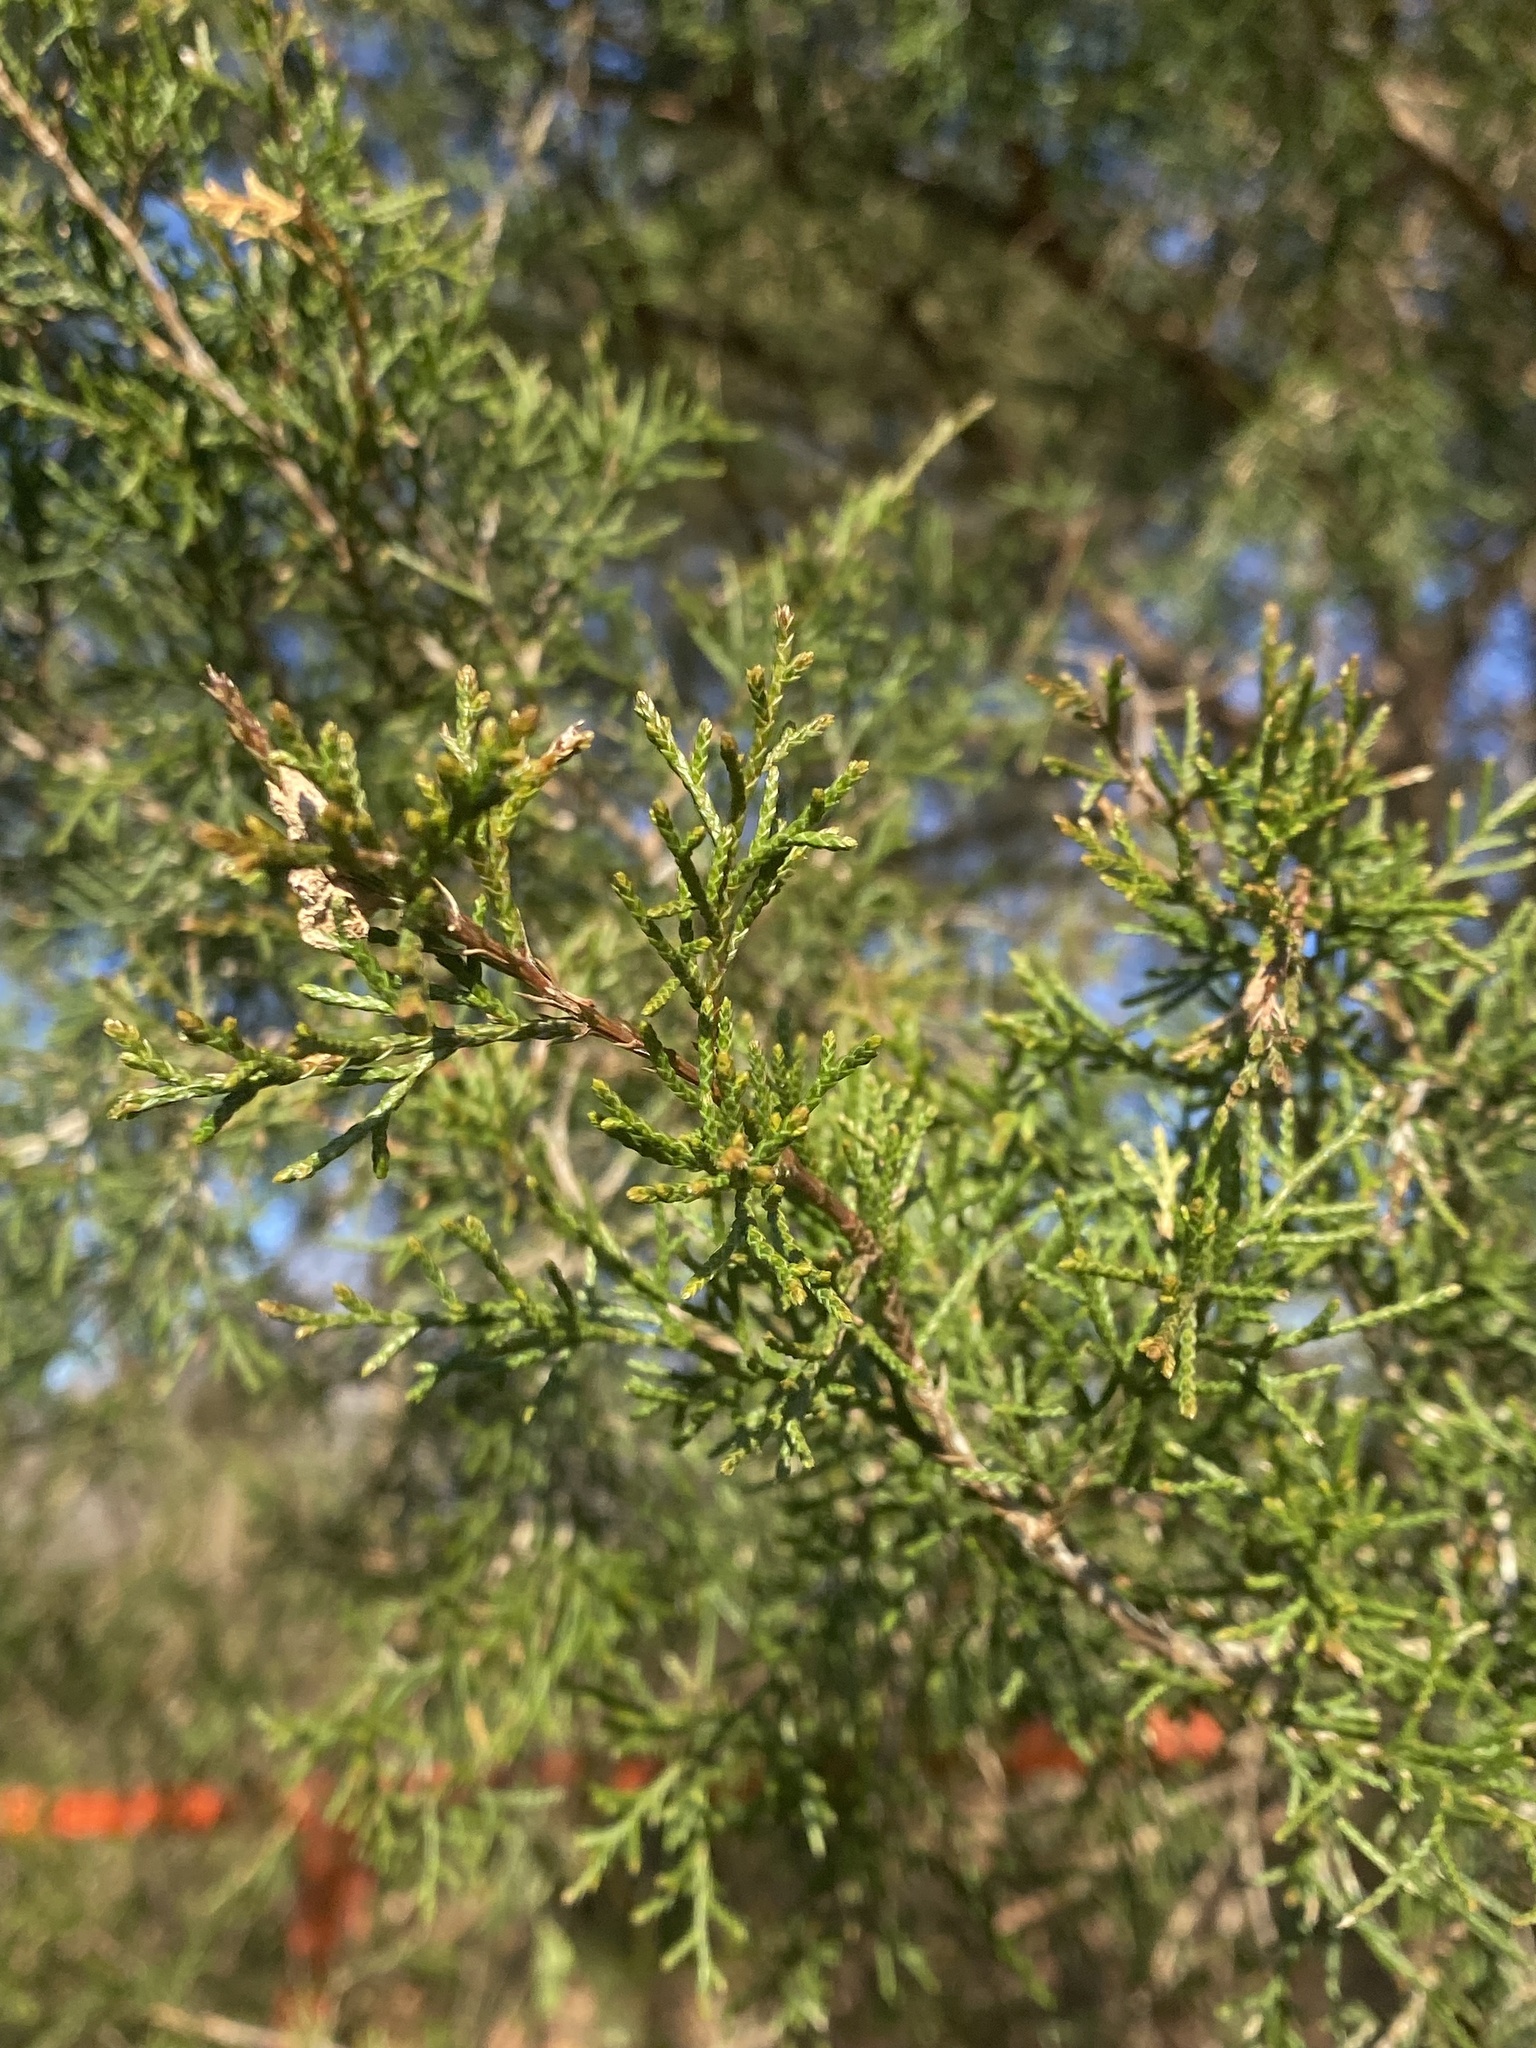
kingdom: Plantae
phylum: Tracheophyta
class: Pinopsida
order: Pinales
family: Cupressaceae
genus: Juniperus
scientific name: Juniperus virginiana
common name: Red juniper
